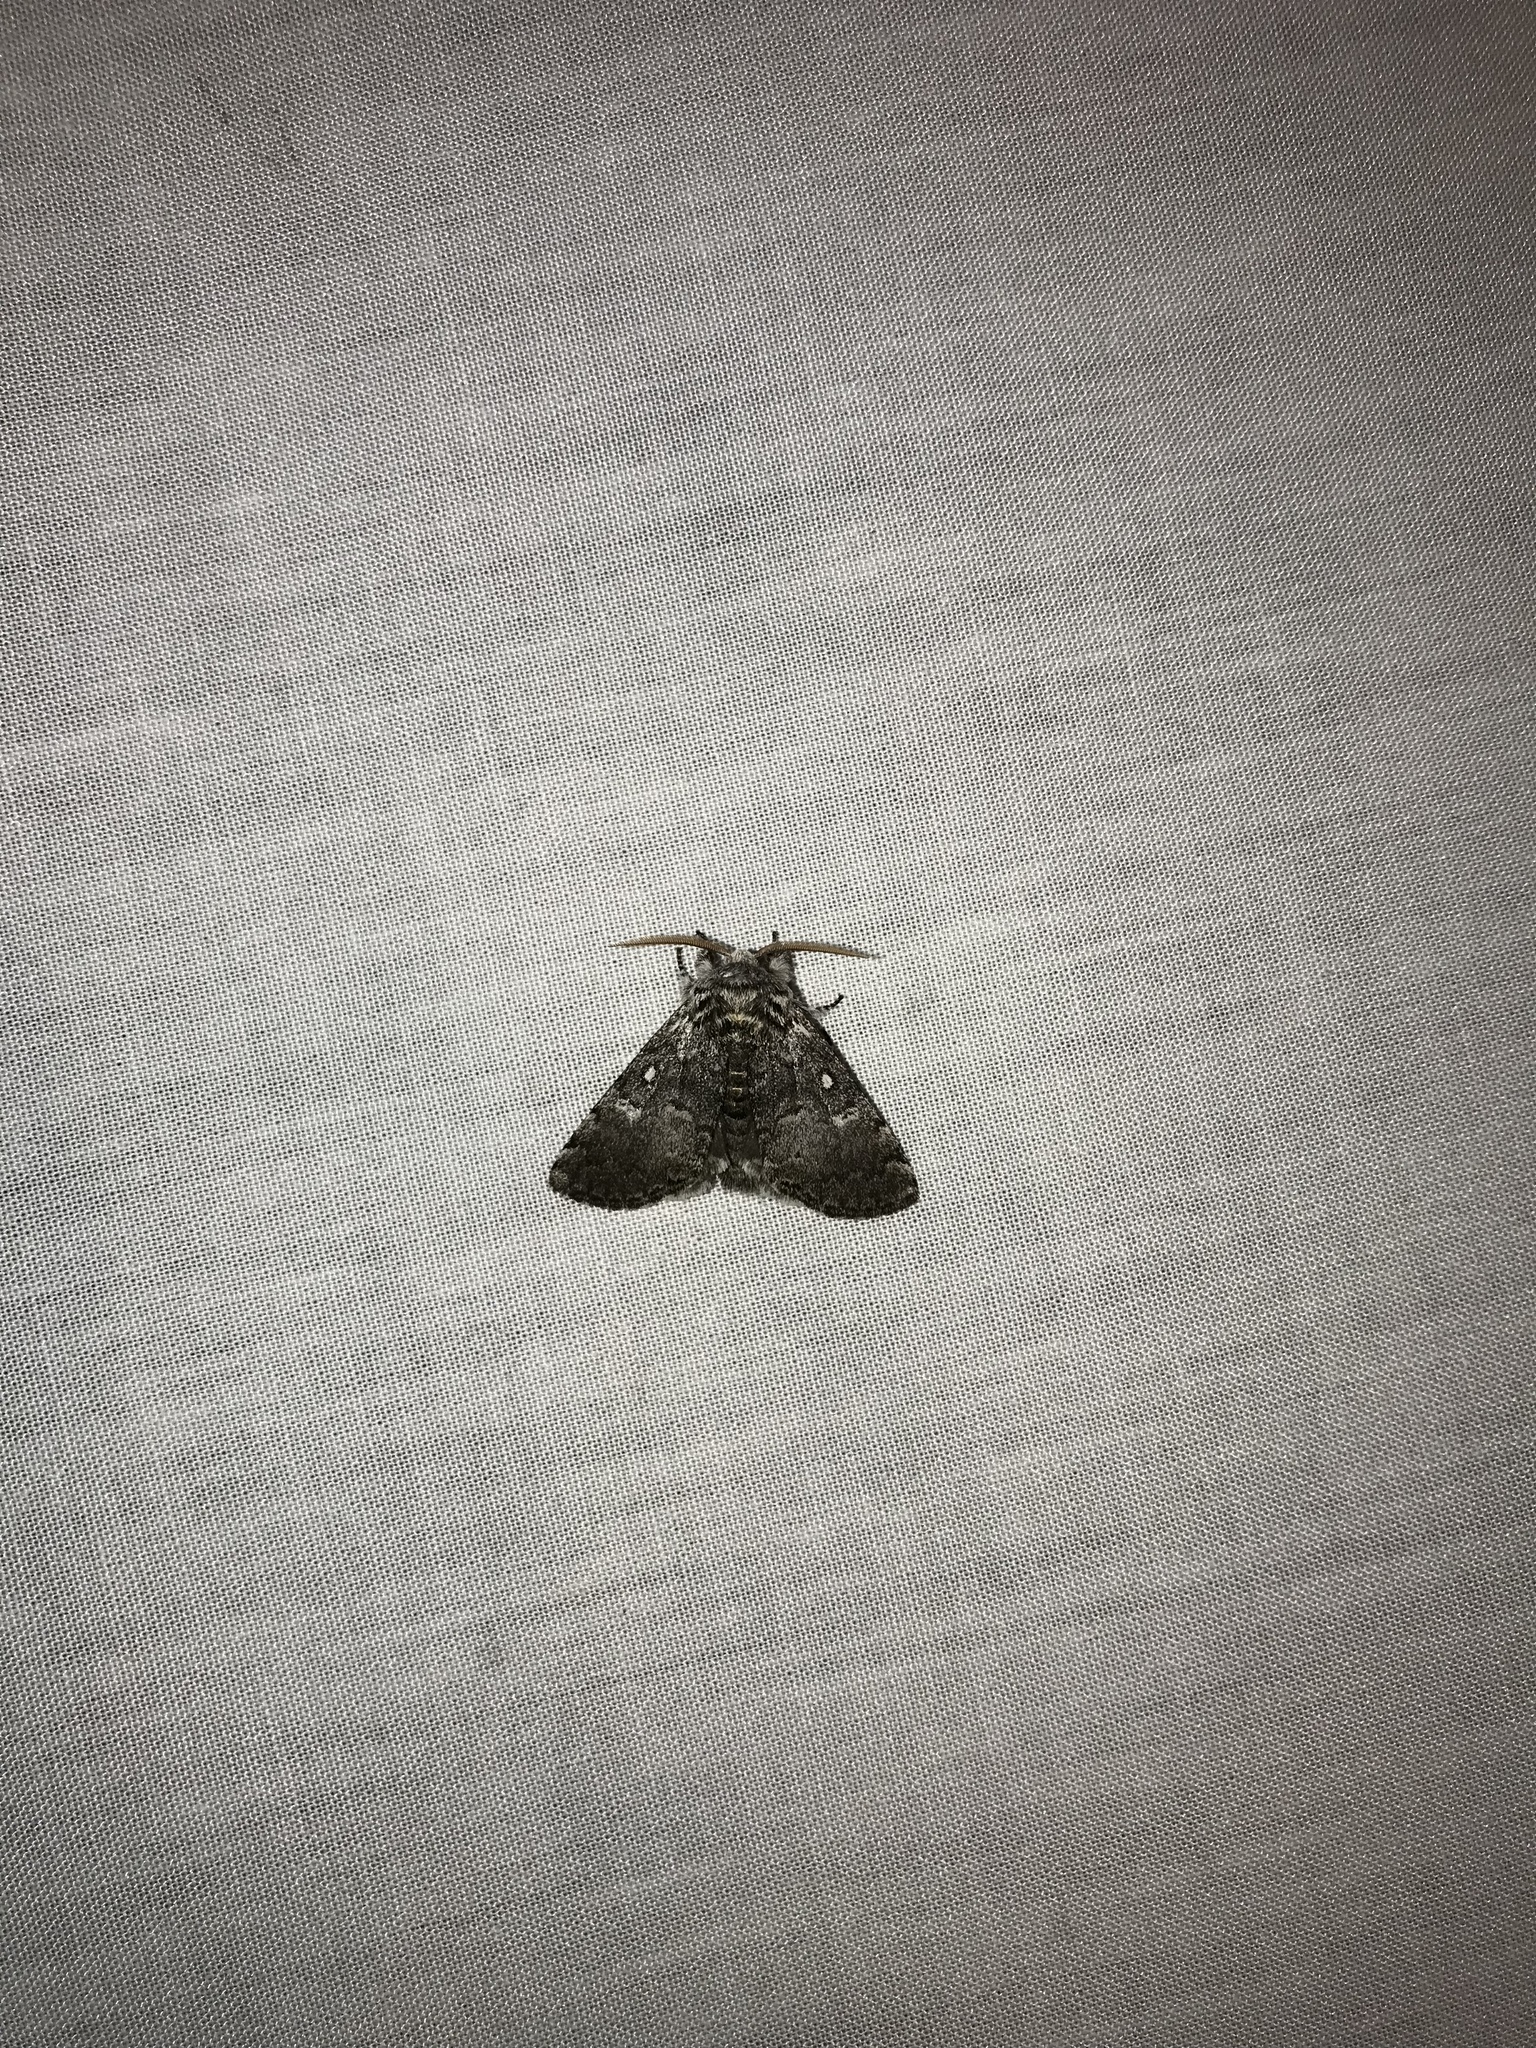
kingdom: Animalia
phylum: Arthropoda
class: Insecta
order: Lepidoptera
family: Noctuidae
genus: Colocasia
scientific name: Colocasia propinquilinea
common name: Close-banded demas
